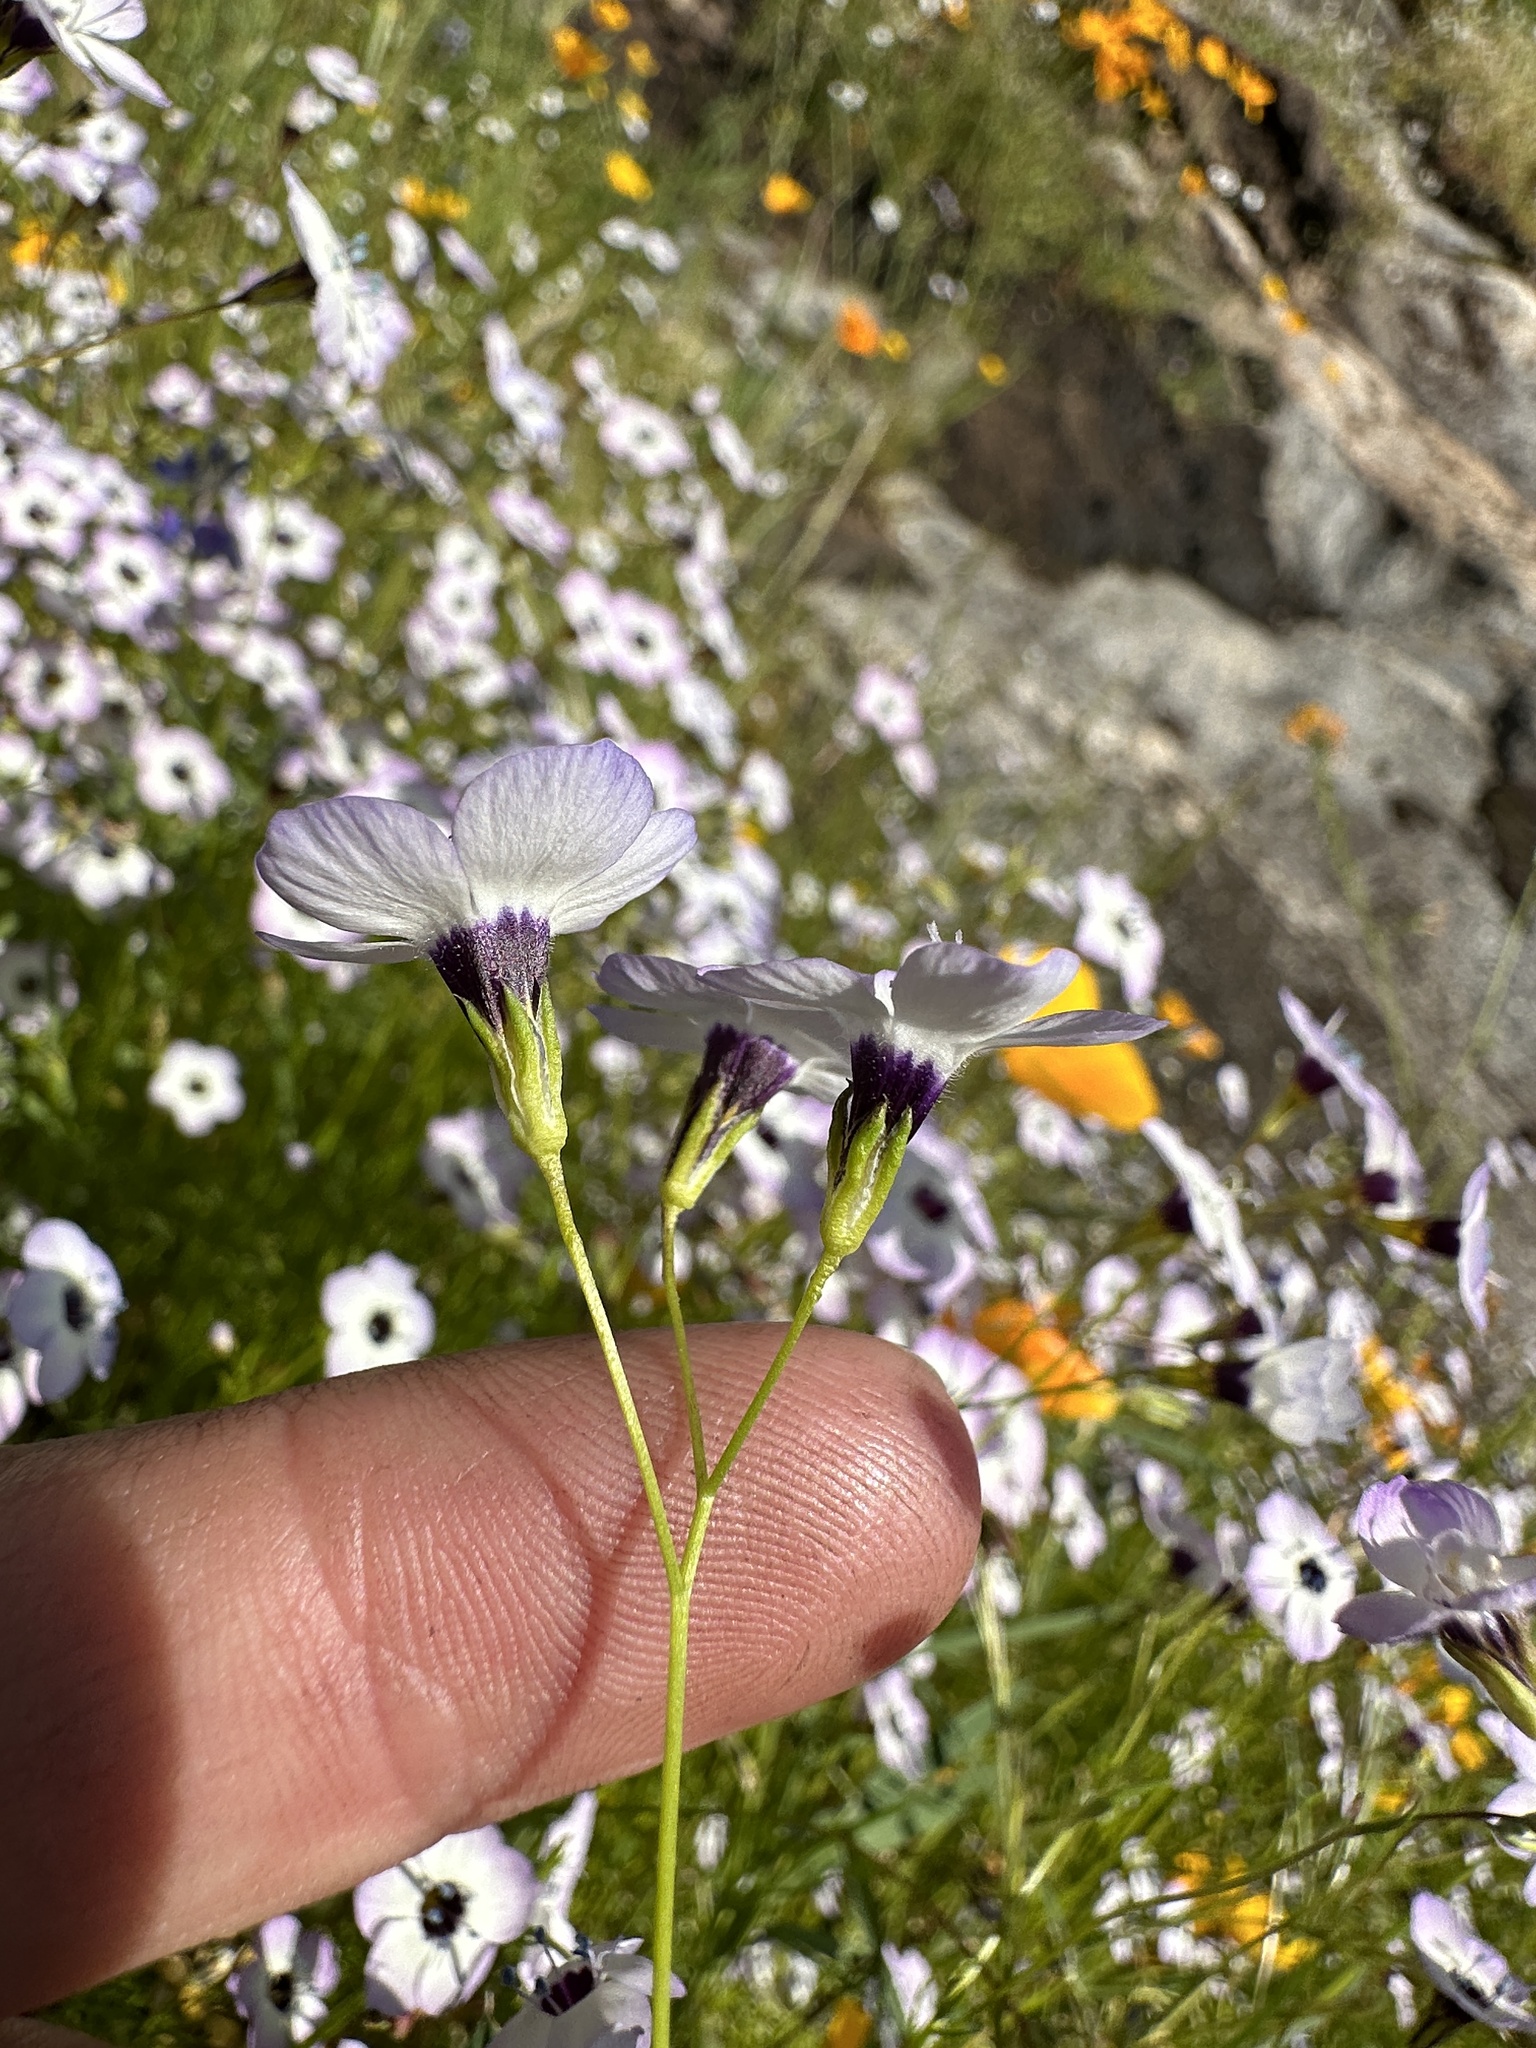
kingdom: Plantae
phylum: Tracheophyta
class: Magnoliopsida
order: Ericales
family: Polemoniaceae
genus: Gilia
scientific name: Gilia tricolor
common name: Bird's-eyes
